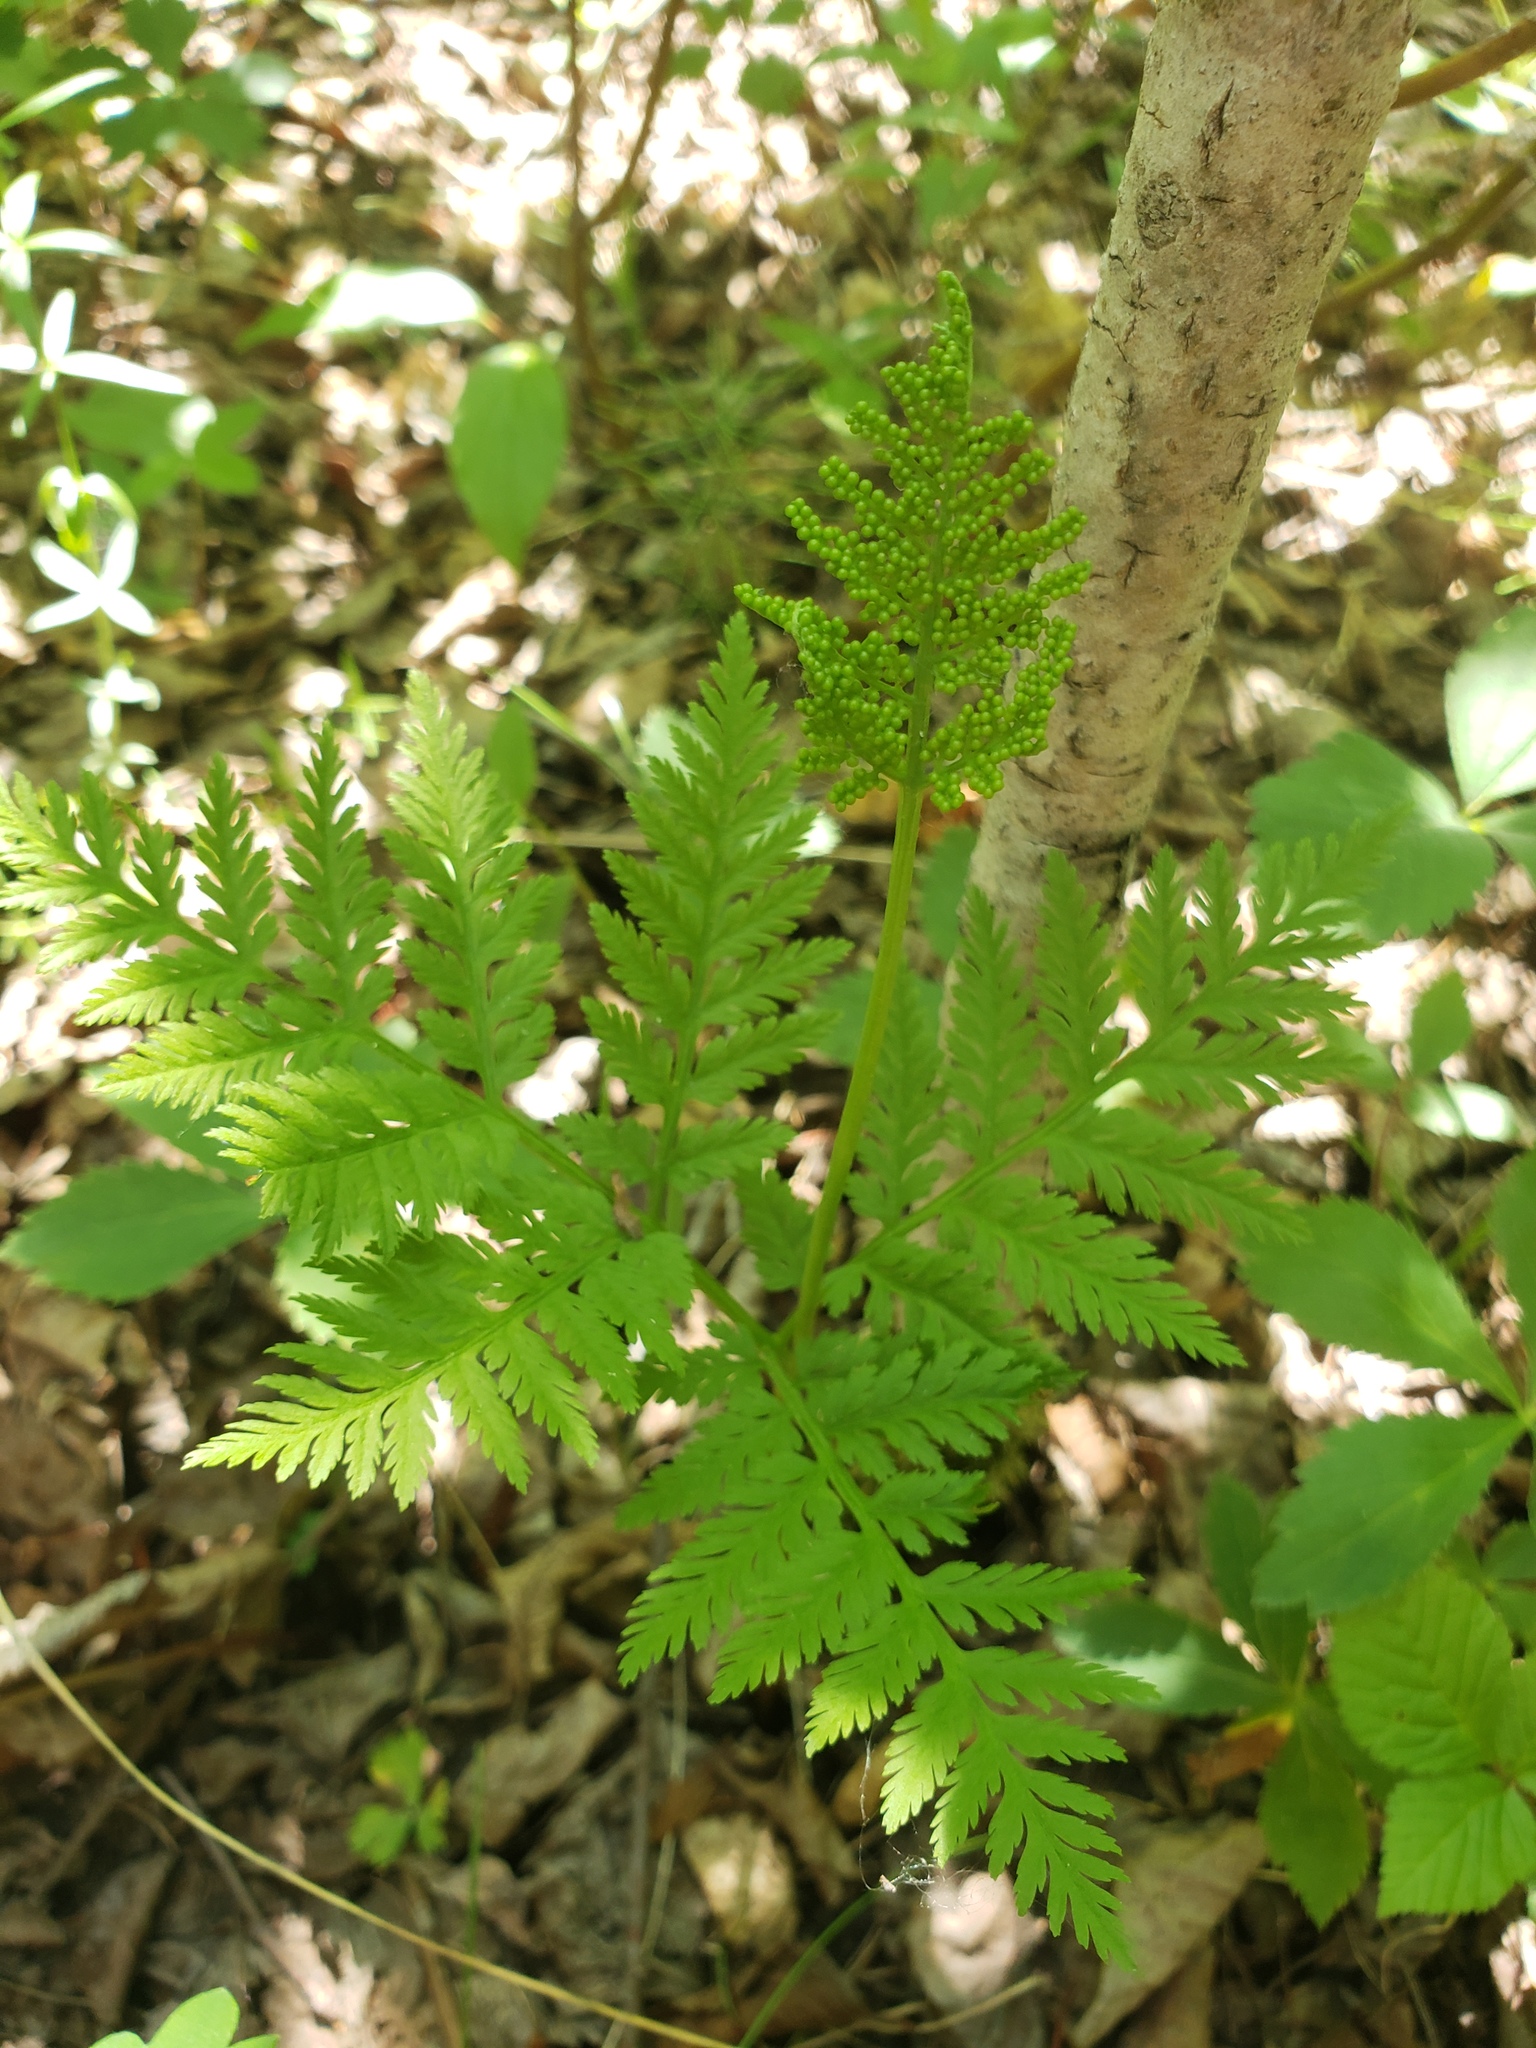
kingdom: Plantae
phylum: Tracheophyta
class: Polypodiopsida
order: Ophioglossales
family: Ophioglossaceae
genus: Botrypus
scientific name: Botrypus virginianus
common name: Common grapefern
